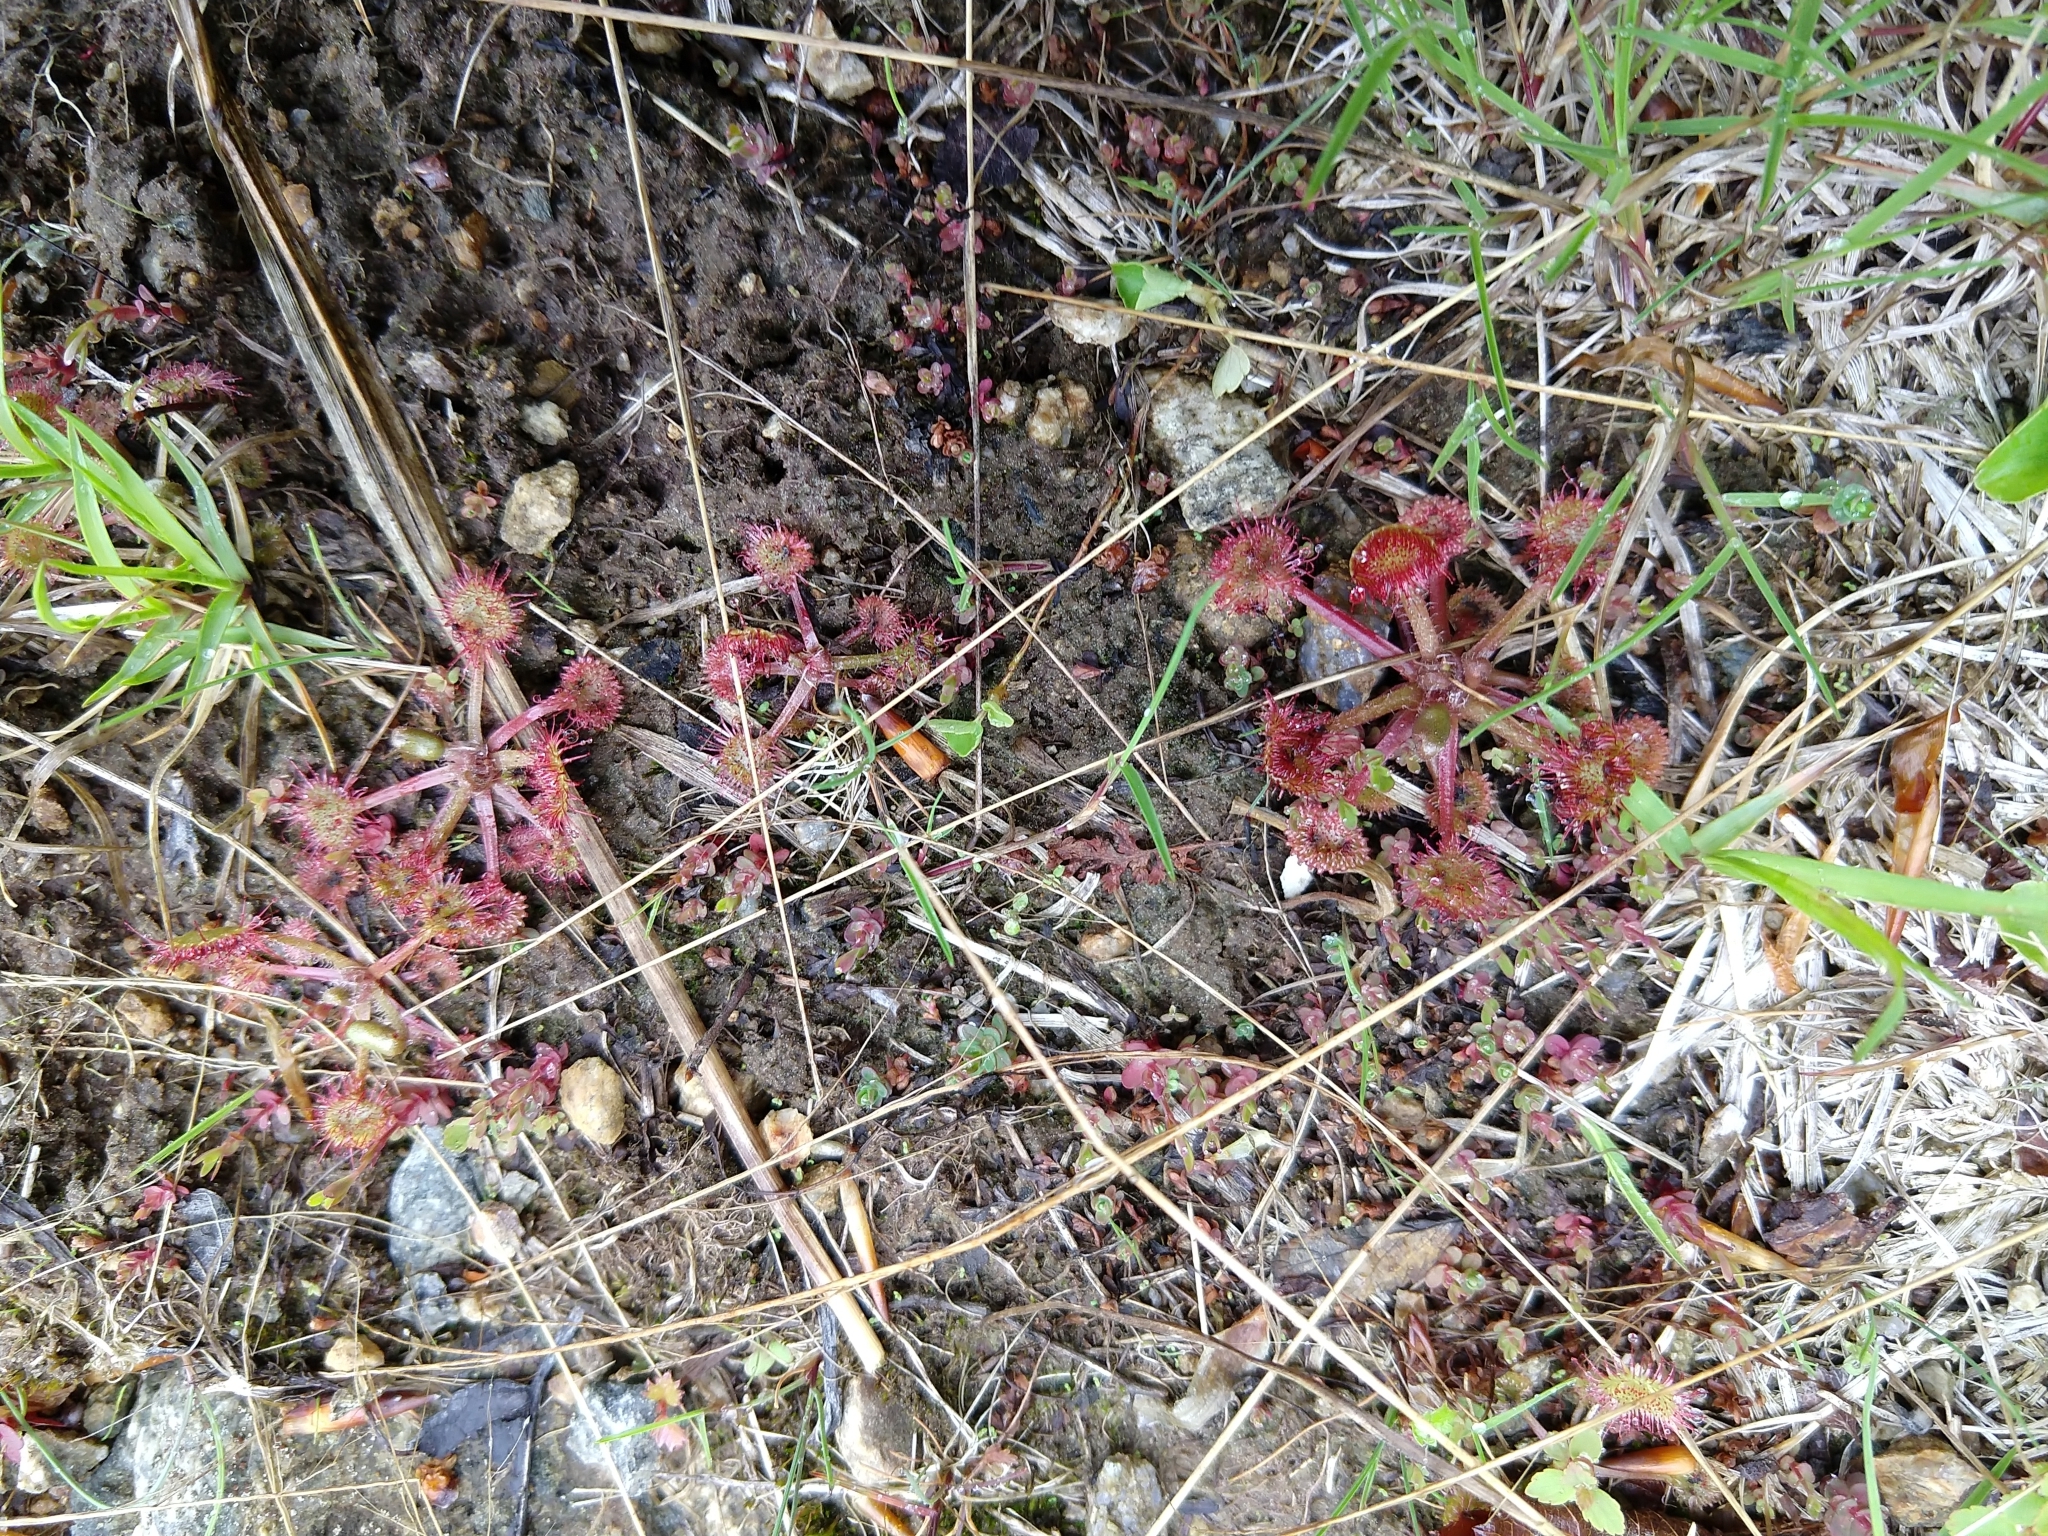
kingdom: Plantae
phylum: Tracheophyta
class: Magnoliopsida
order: Caryophyllales
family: Droseraceae
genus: Drosera
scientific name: Drosera rotundifolia
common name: Round-leaved sundew
